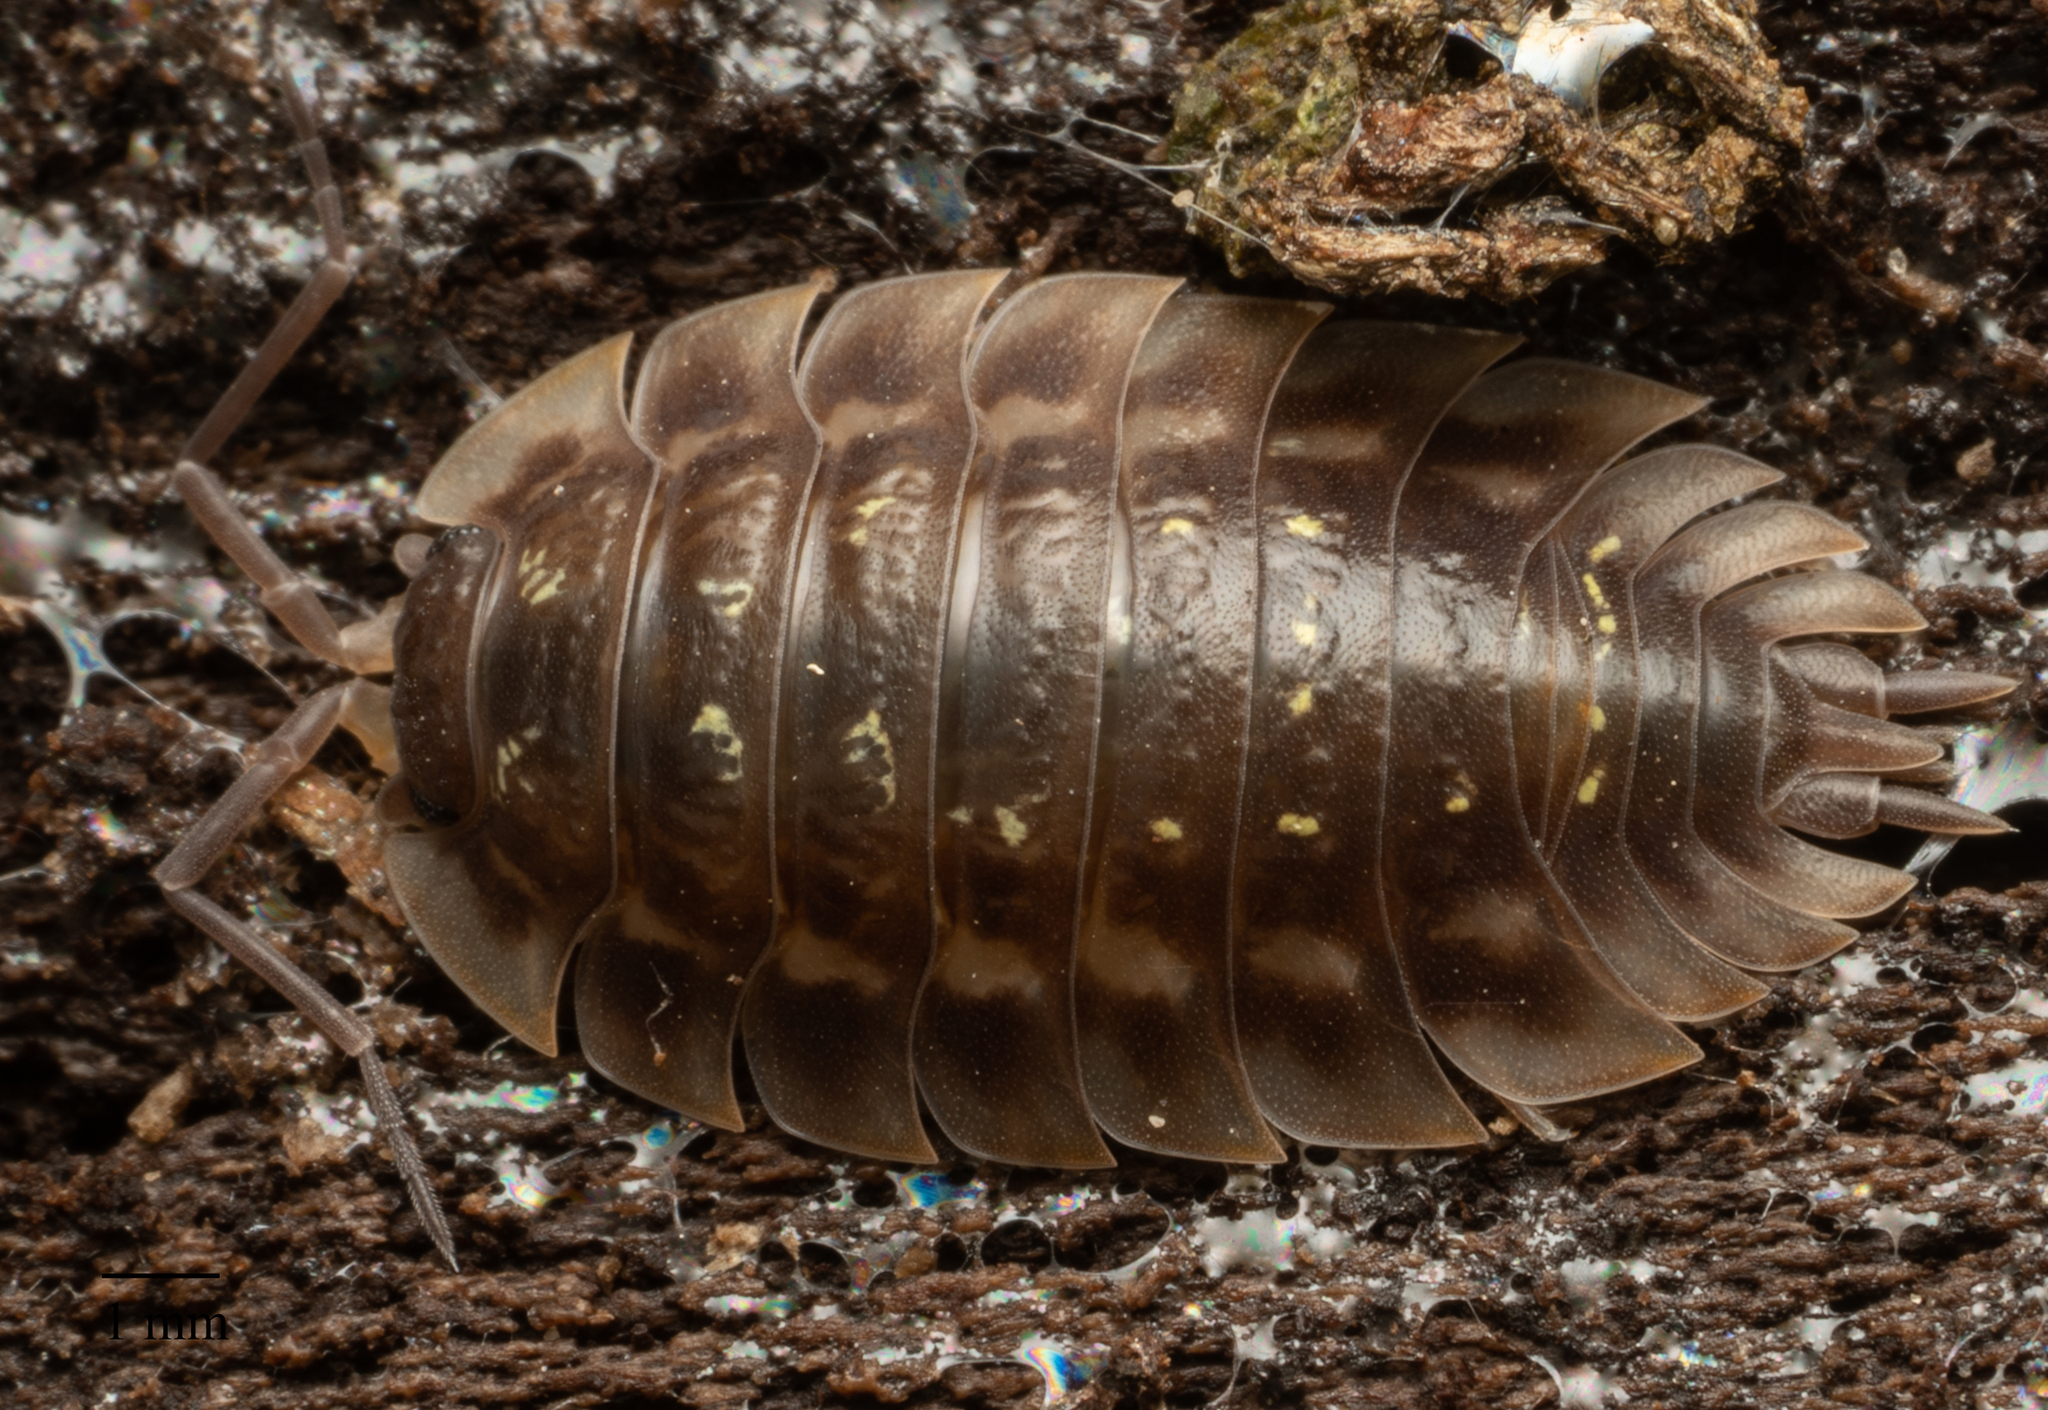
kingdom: Animalia
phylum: Arthropoda
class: Malacostraca
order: Isopoda
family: Oniscidae
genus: Oniscus
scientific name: Oniscus asellus
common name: Common shiny woodlouse
